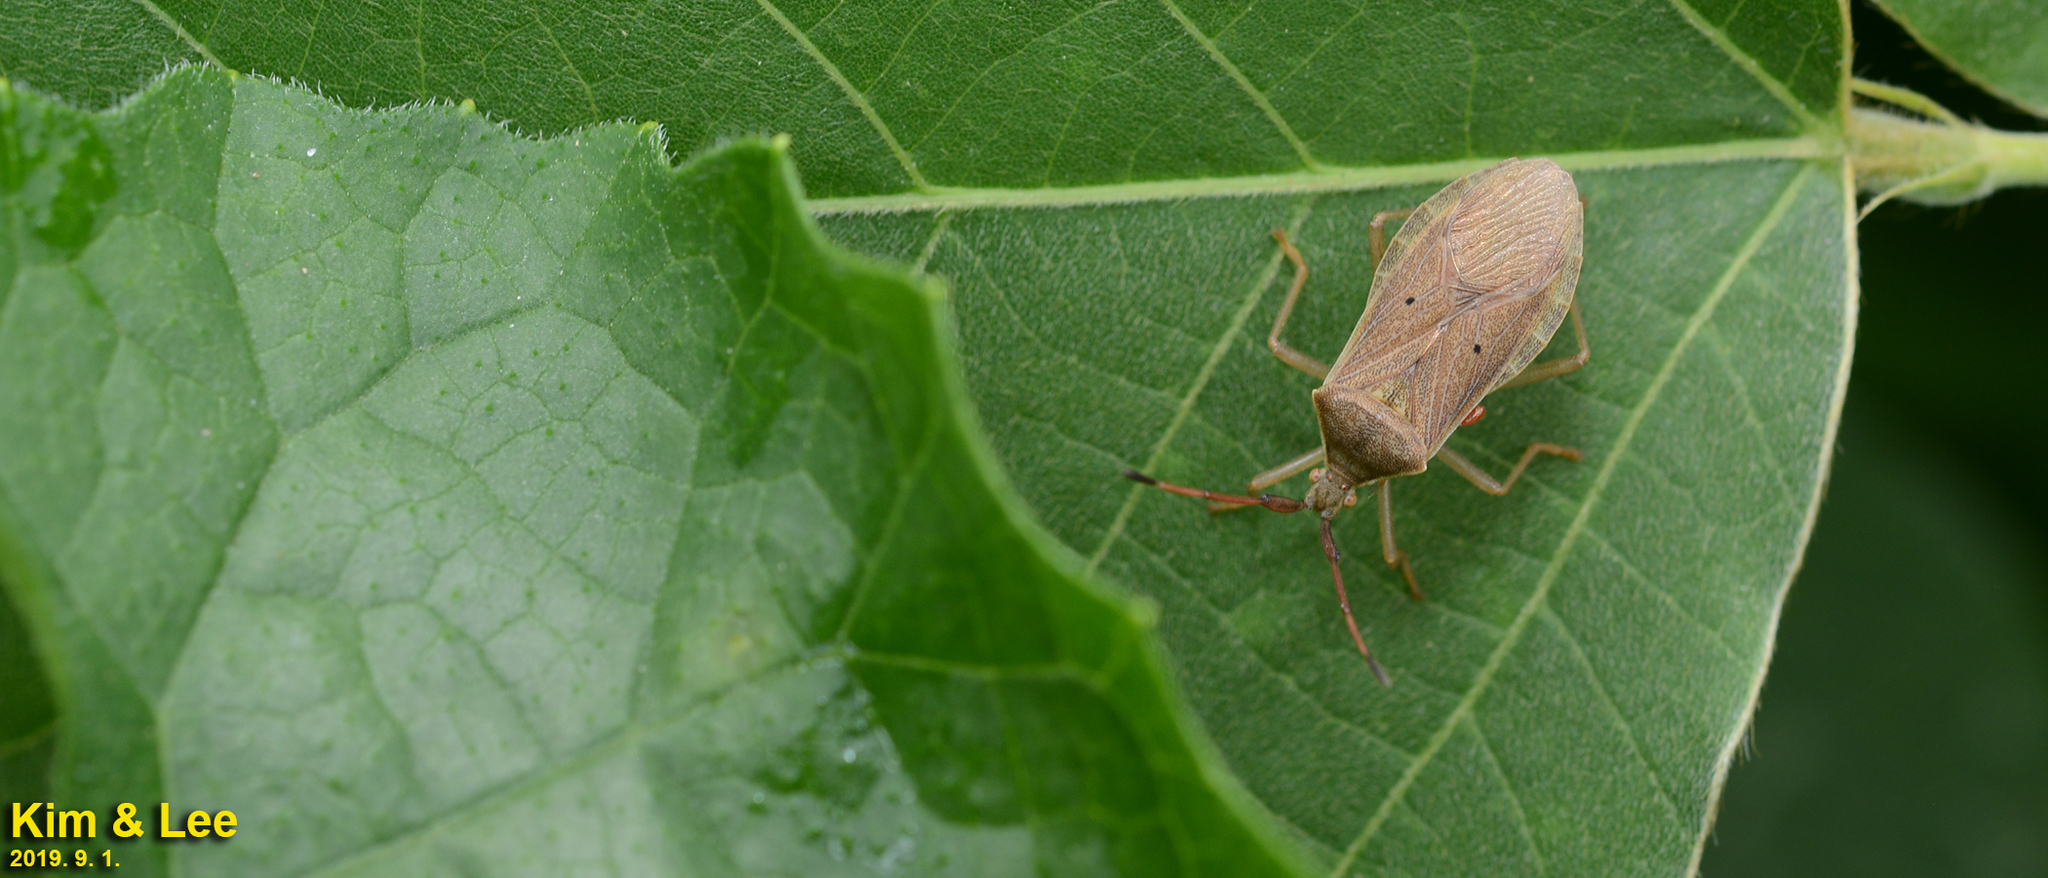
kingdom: Animalia
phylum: Arthropoda
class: Insecta
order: Hemiptera
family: Coreidae
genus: Homoeocerus
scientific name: Homoeocerus unipunctatus
